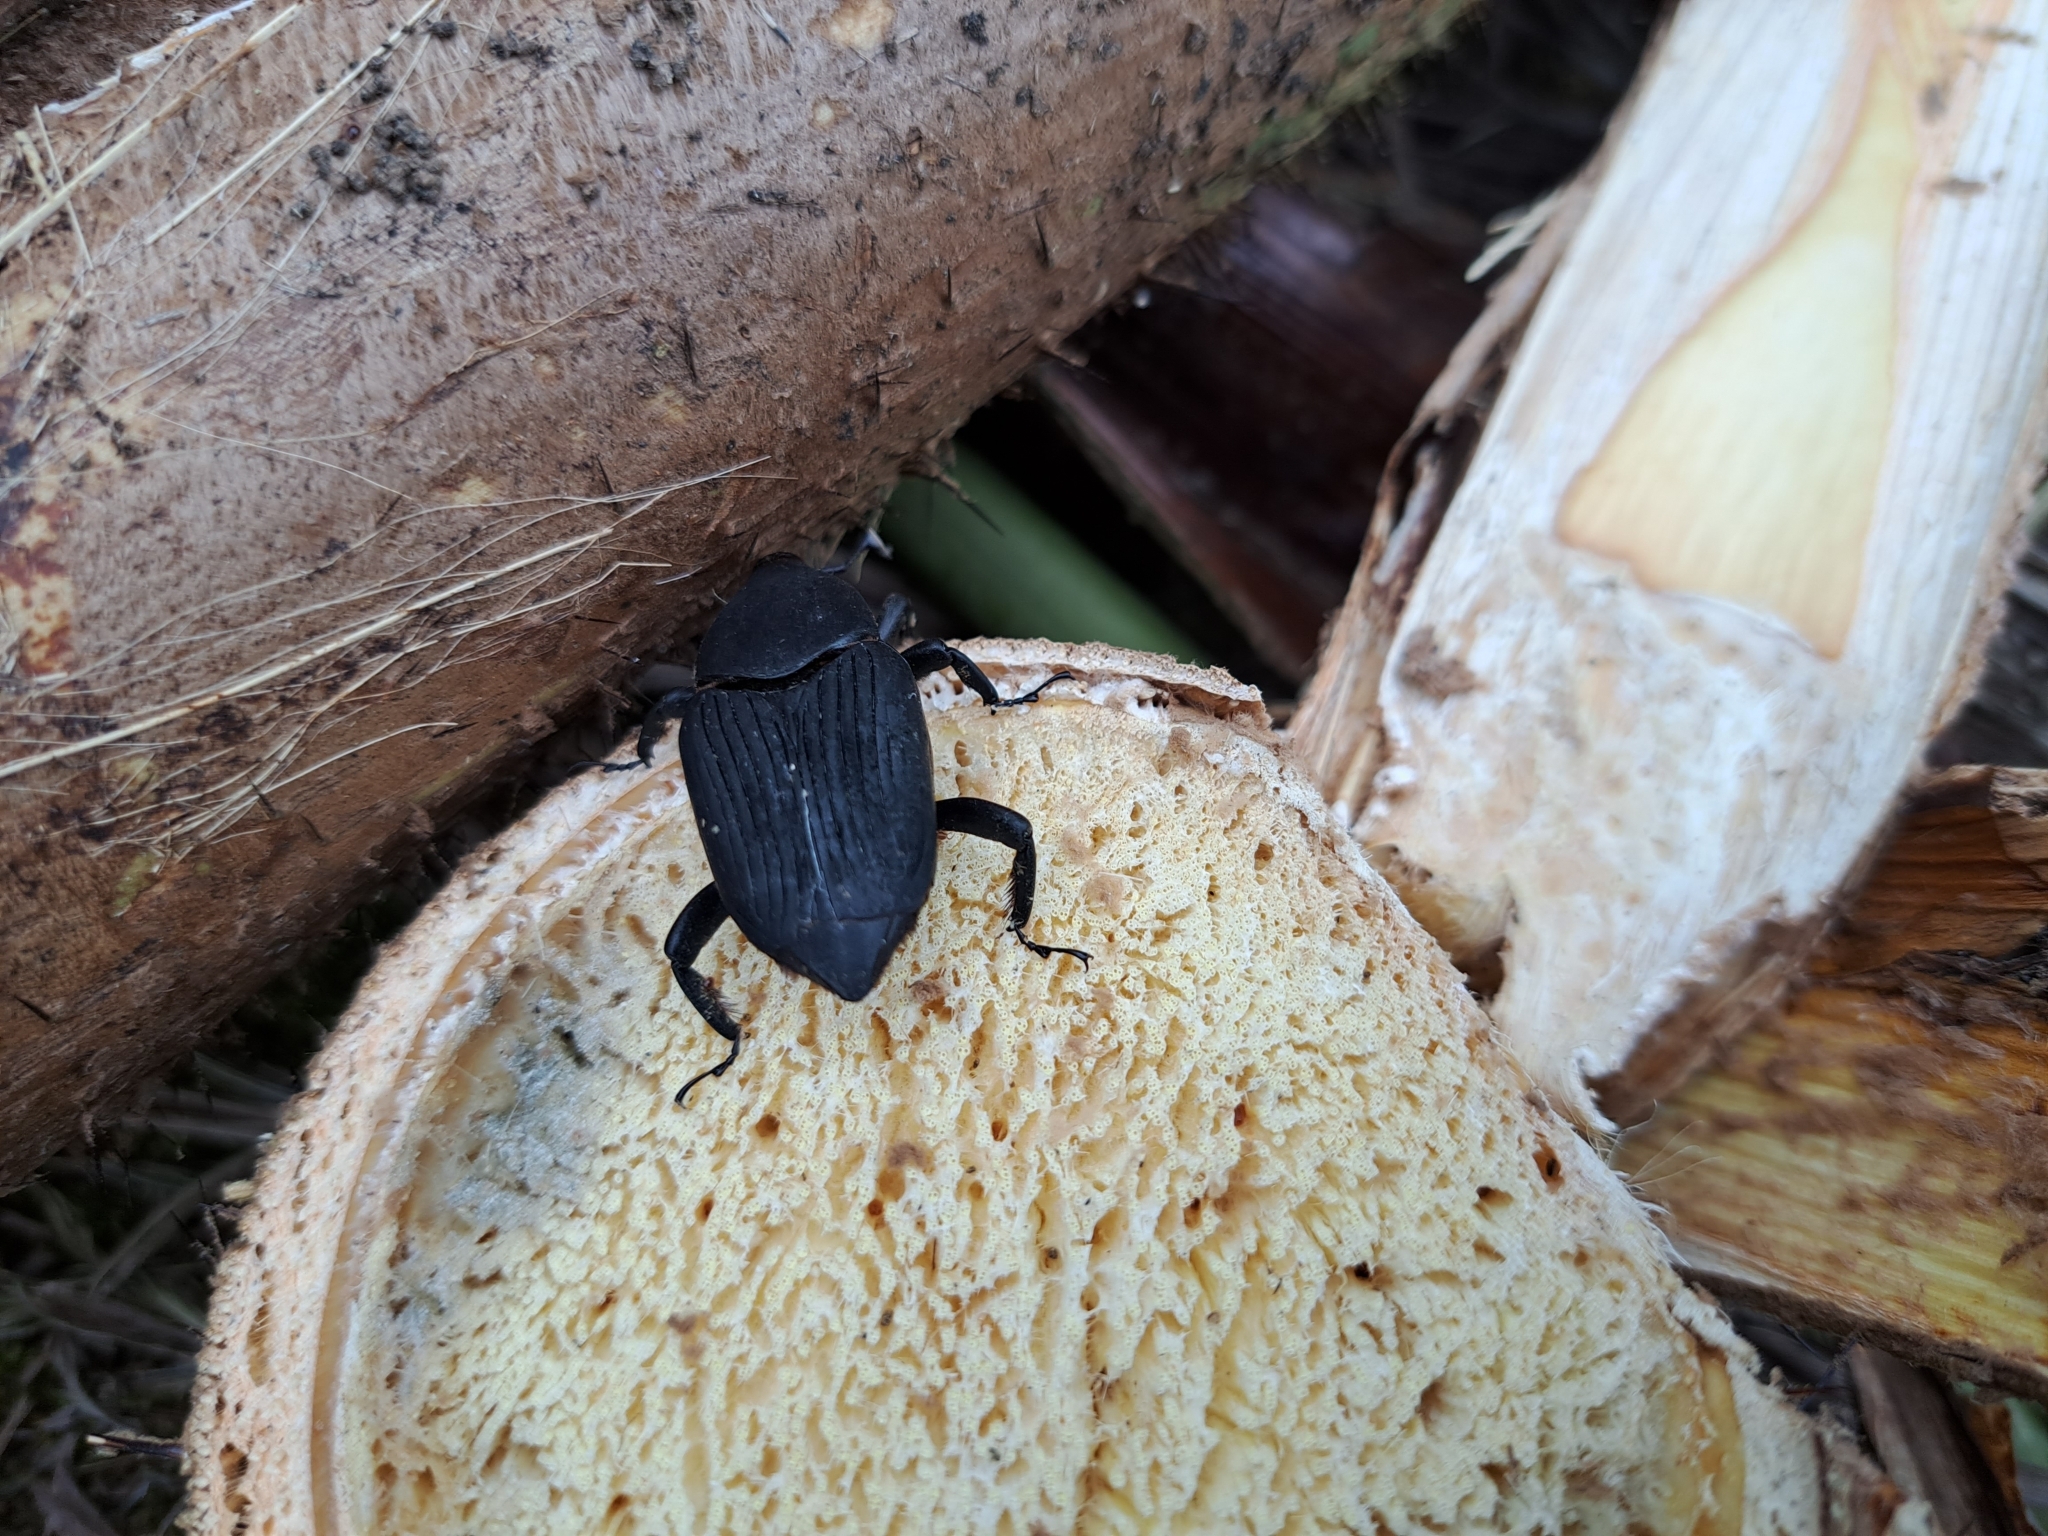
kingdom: Animalia
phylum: Arthropoda
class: Insecta
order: Coleoptera
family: Dryophthoridae
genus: Rhynchophorus
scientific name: Rhynchophorus palmarum
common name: Palm weevil
